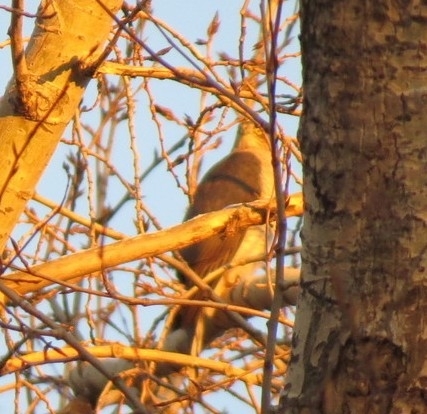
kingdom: Animalia
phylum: Chordata
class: Aves
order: Accipitriformes
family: Accipitridae
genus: Accipiter
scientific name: Accipiter nisus
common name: Eurasian sparrowhawk
